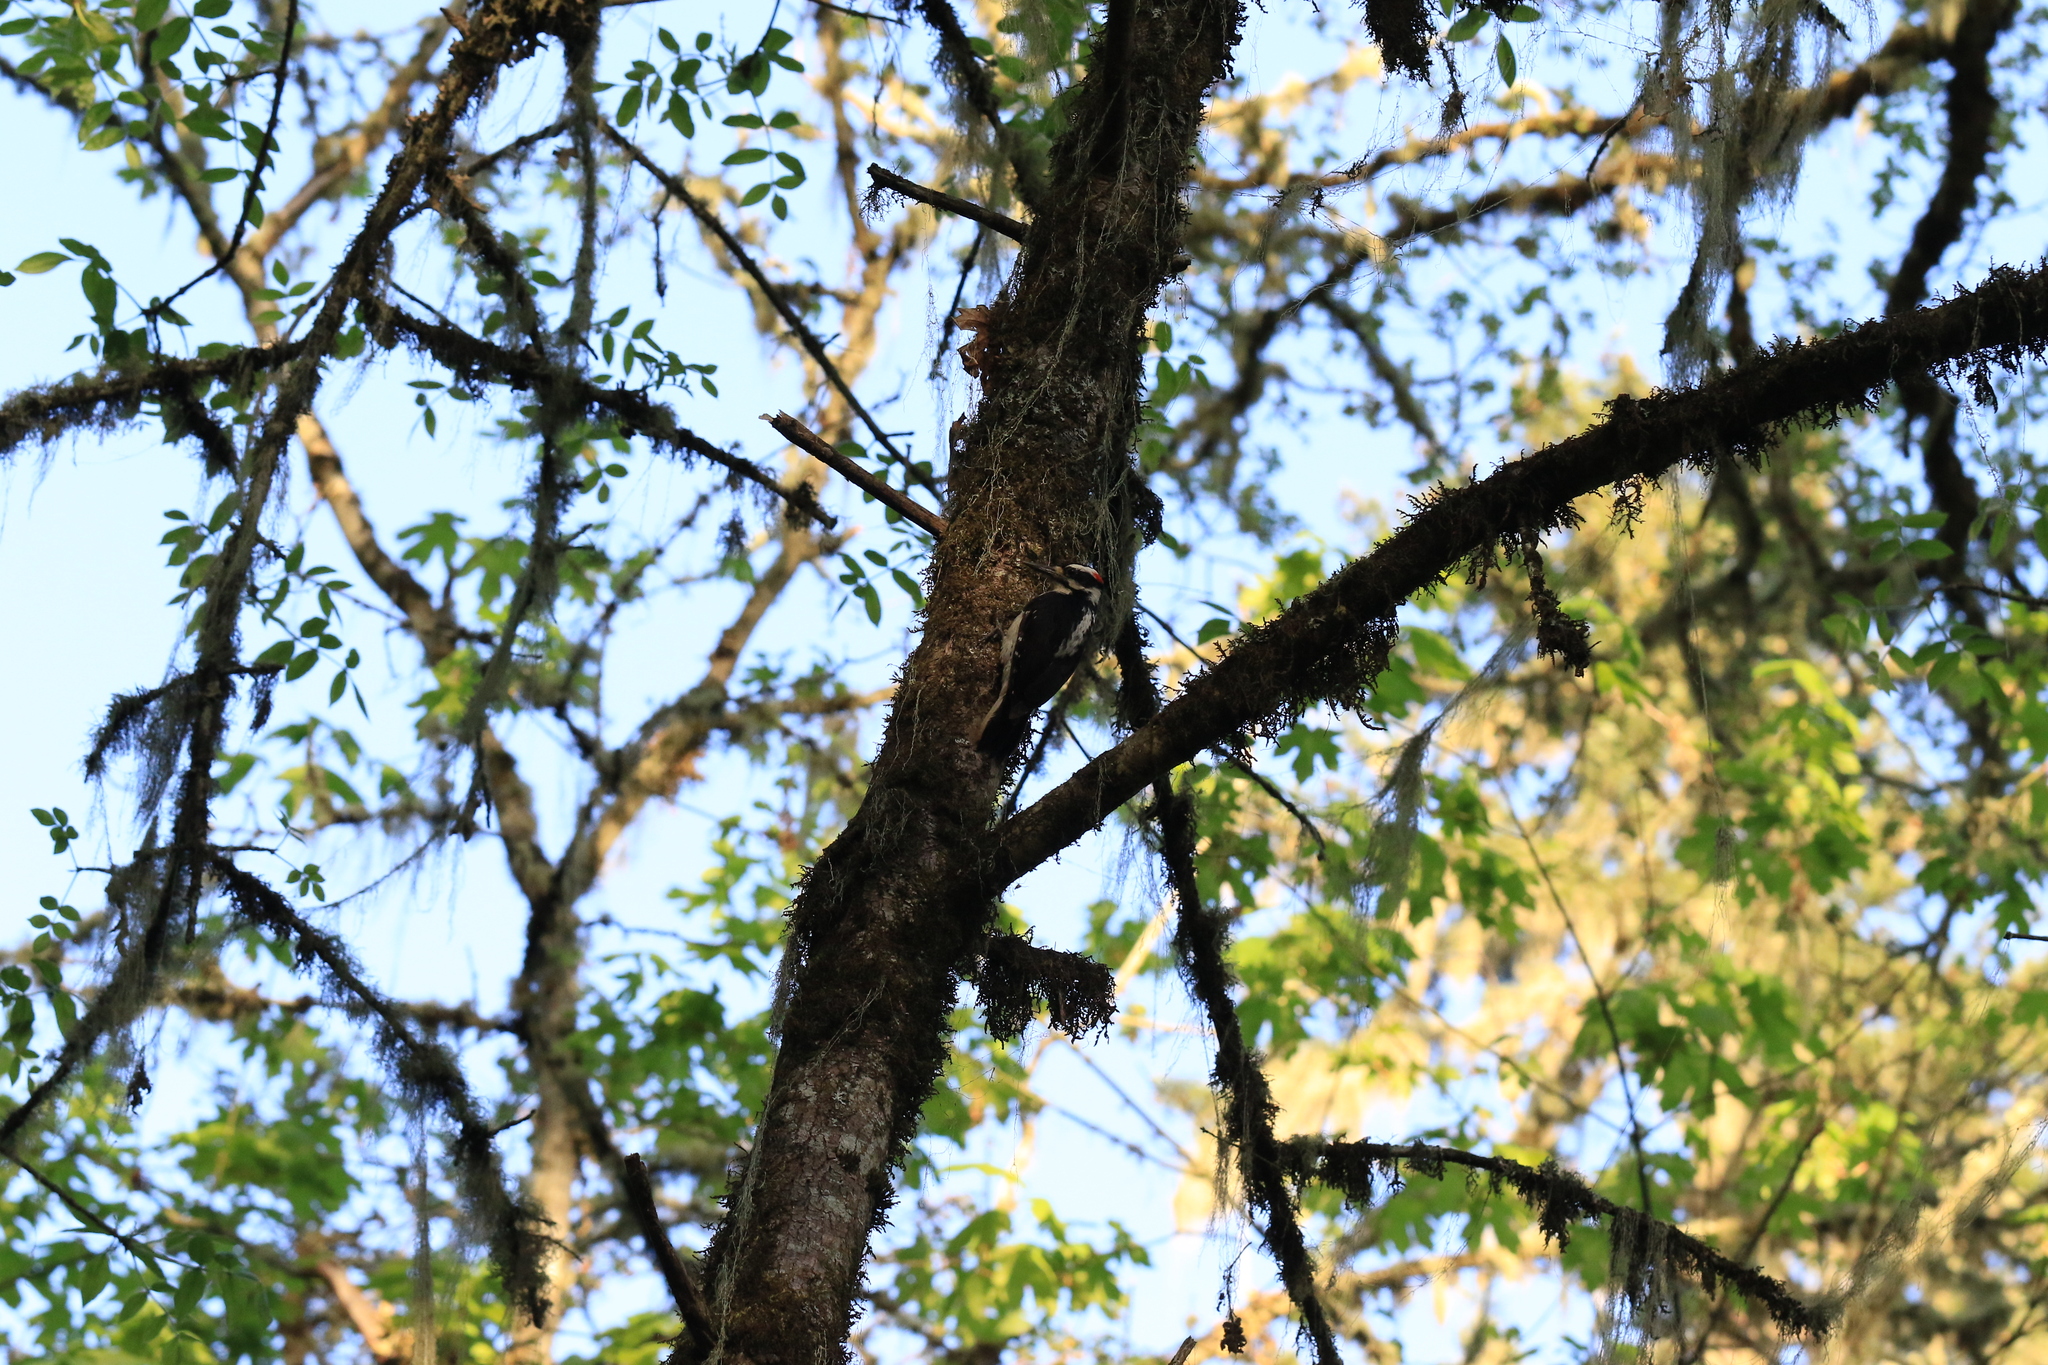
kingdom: Animalia
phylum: Chordata
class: Aves
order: Piciformes
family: Picidae
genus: Leuconotopicus
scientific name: Leuconotopicus villosus
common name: Hairy woodpecker
